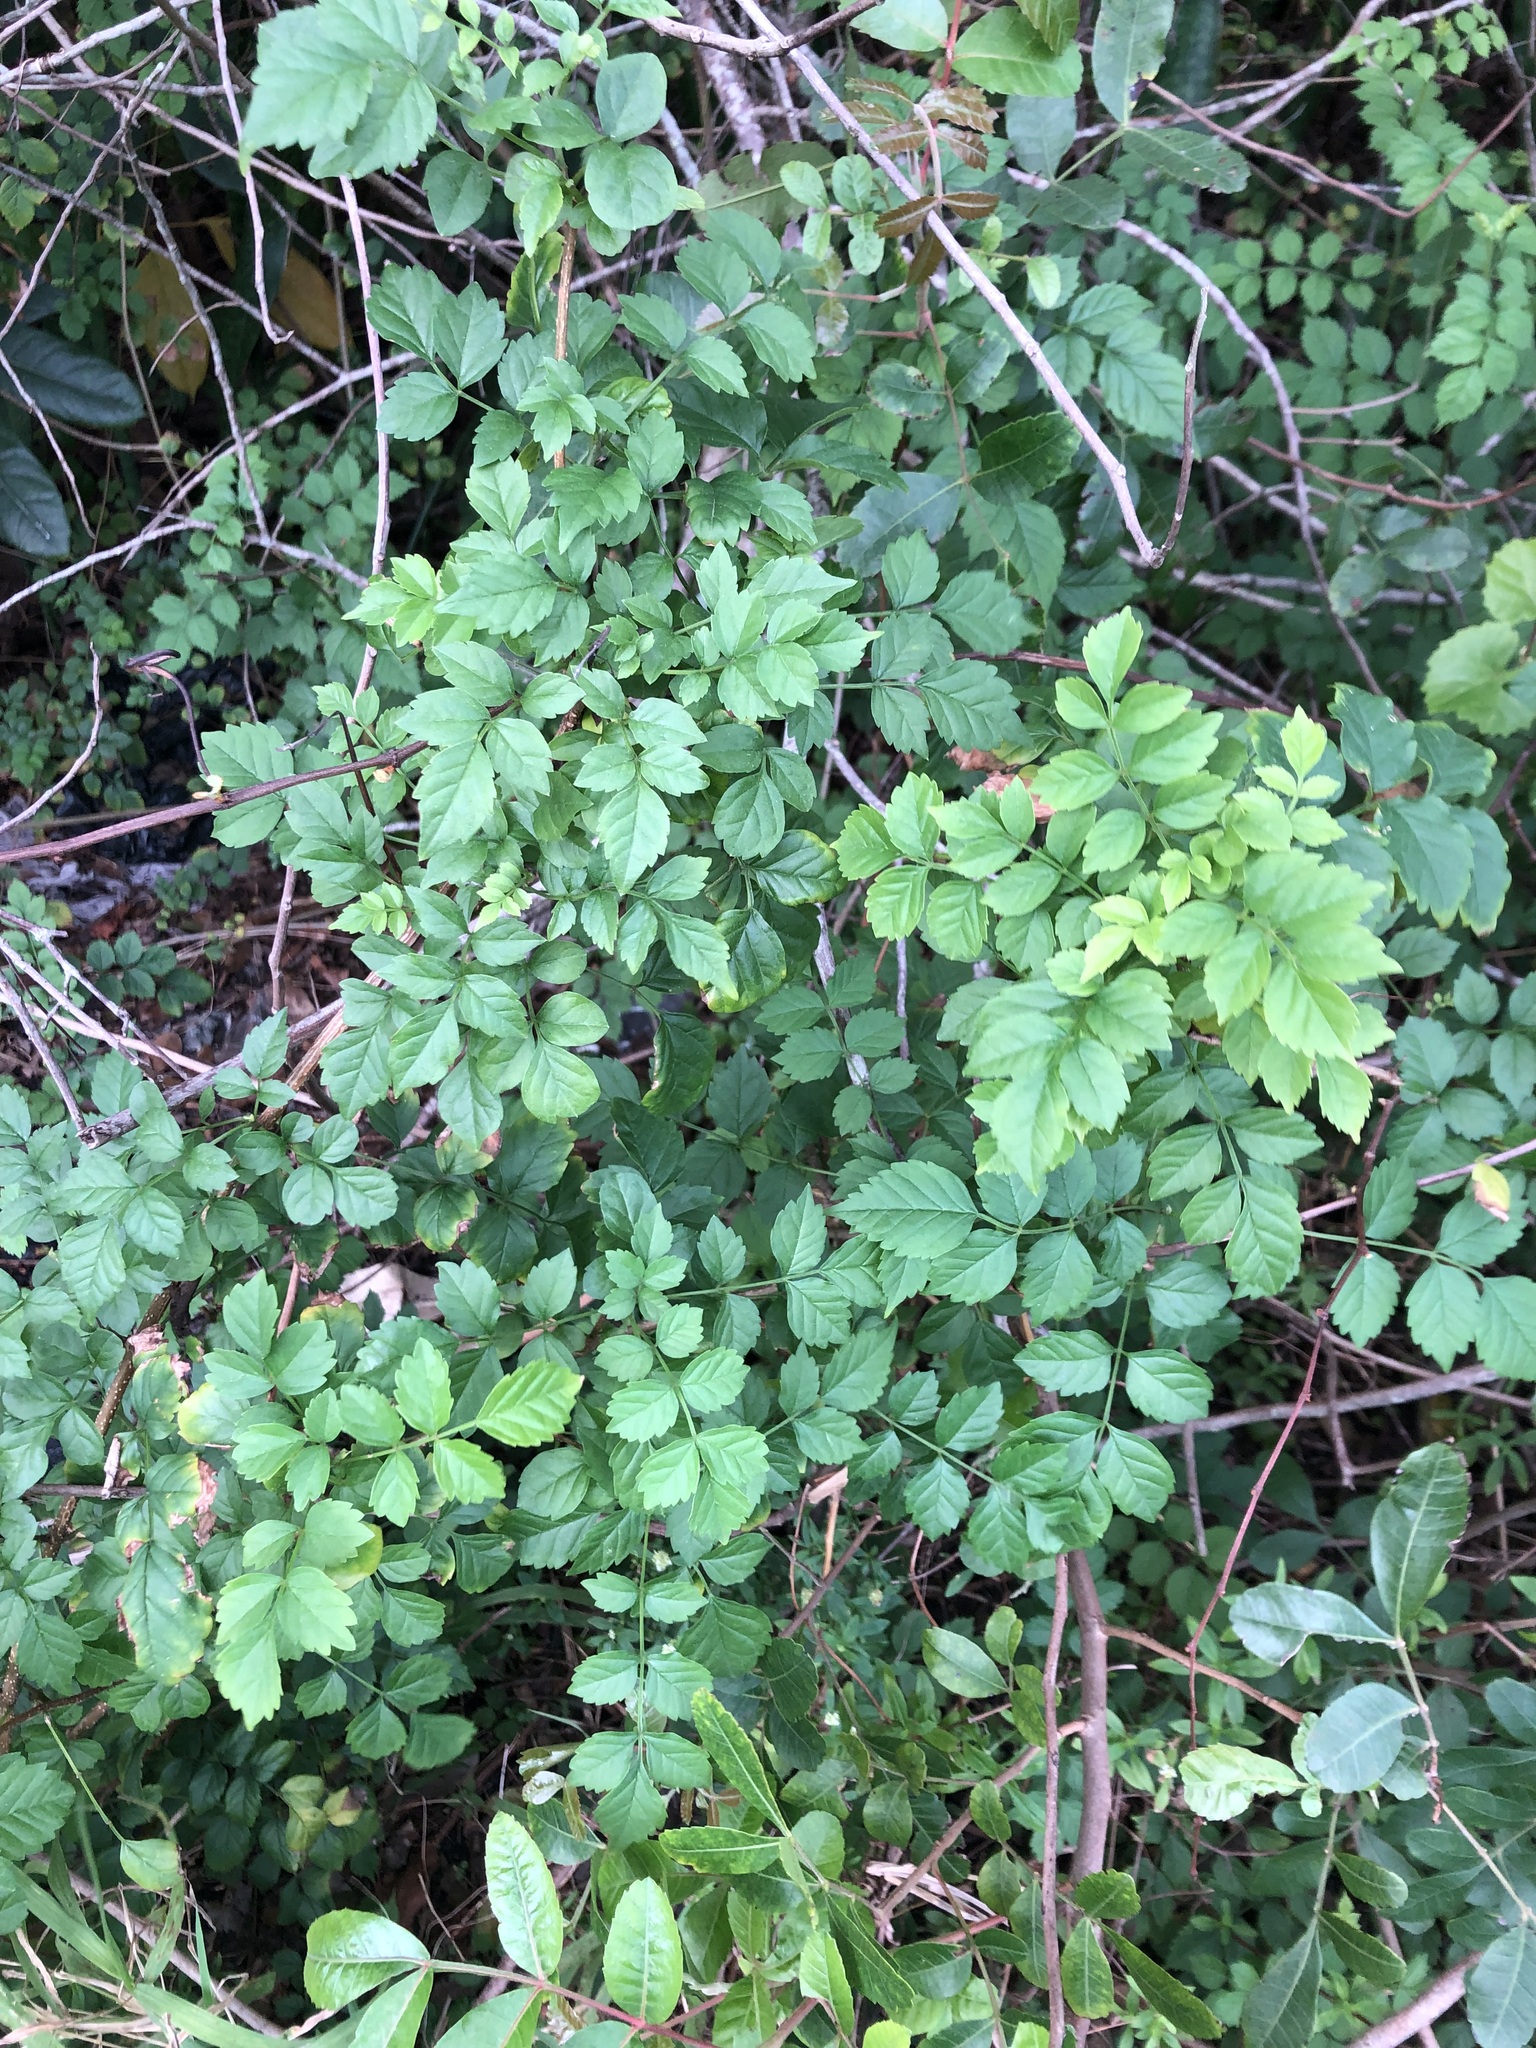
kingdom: Plantae
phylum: Tracheophyta
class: Magnoliopsida
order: Lamiales
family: Bignoniaceae
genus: Tecomaria
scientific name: Tecomaria capensis
